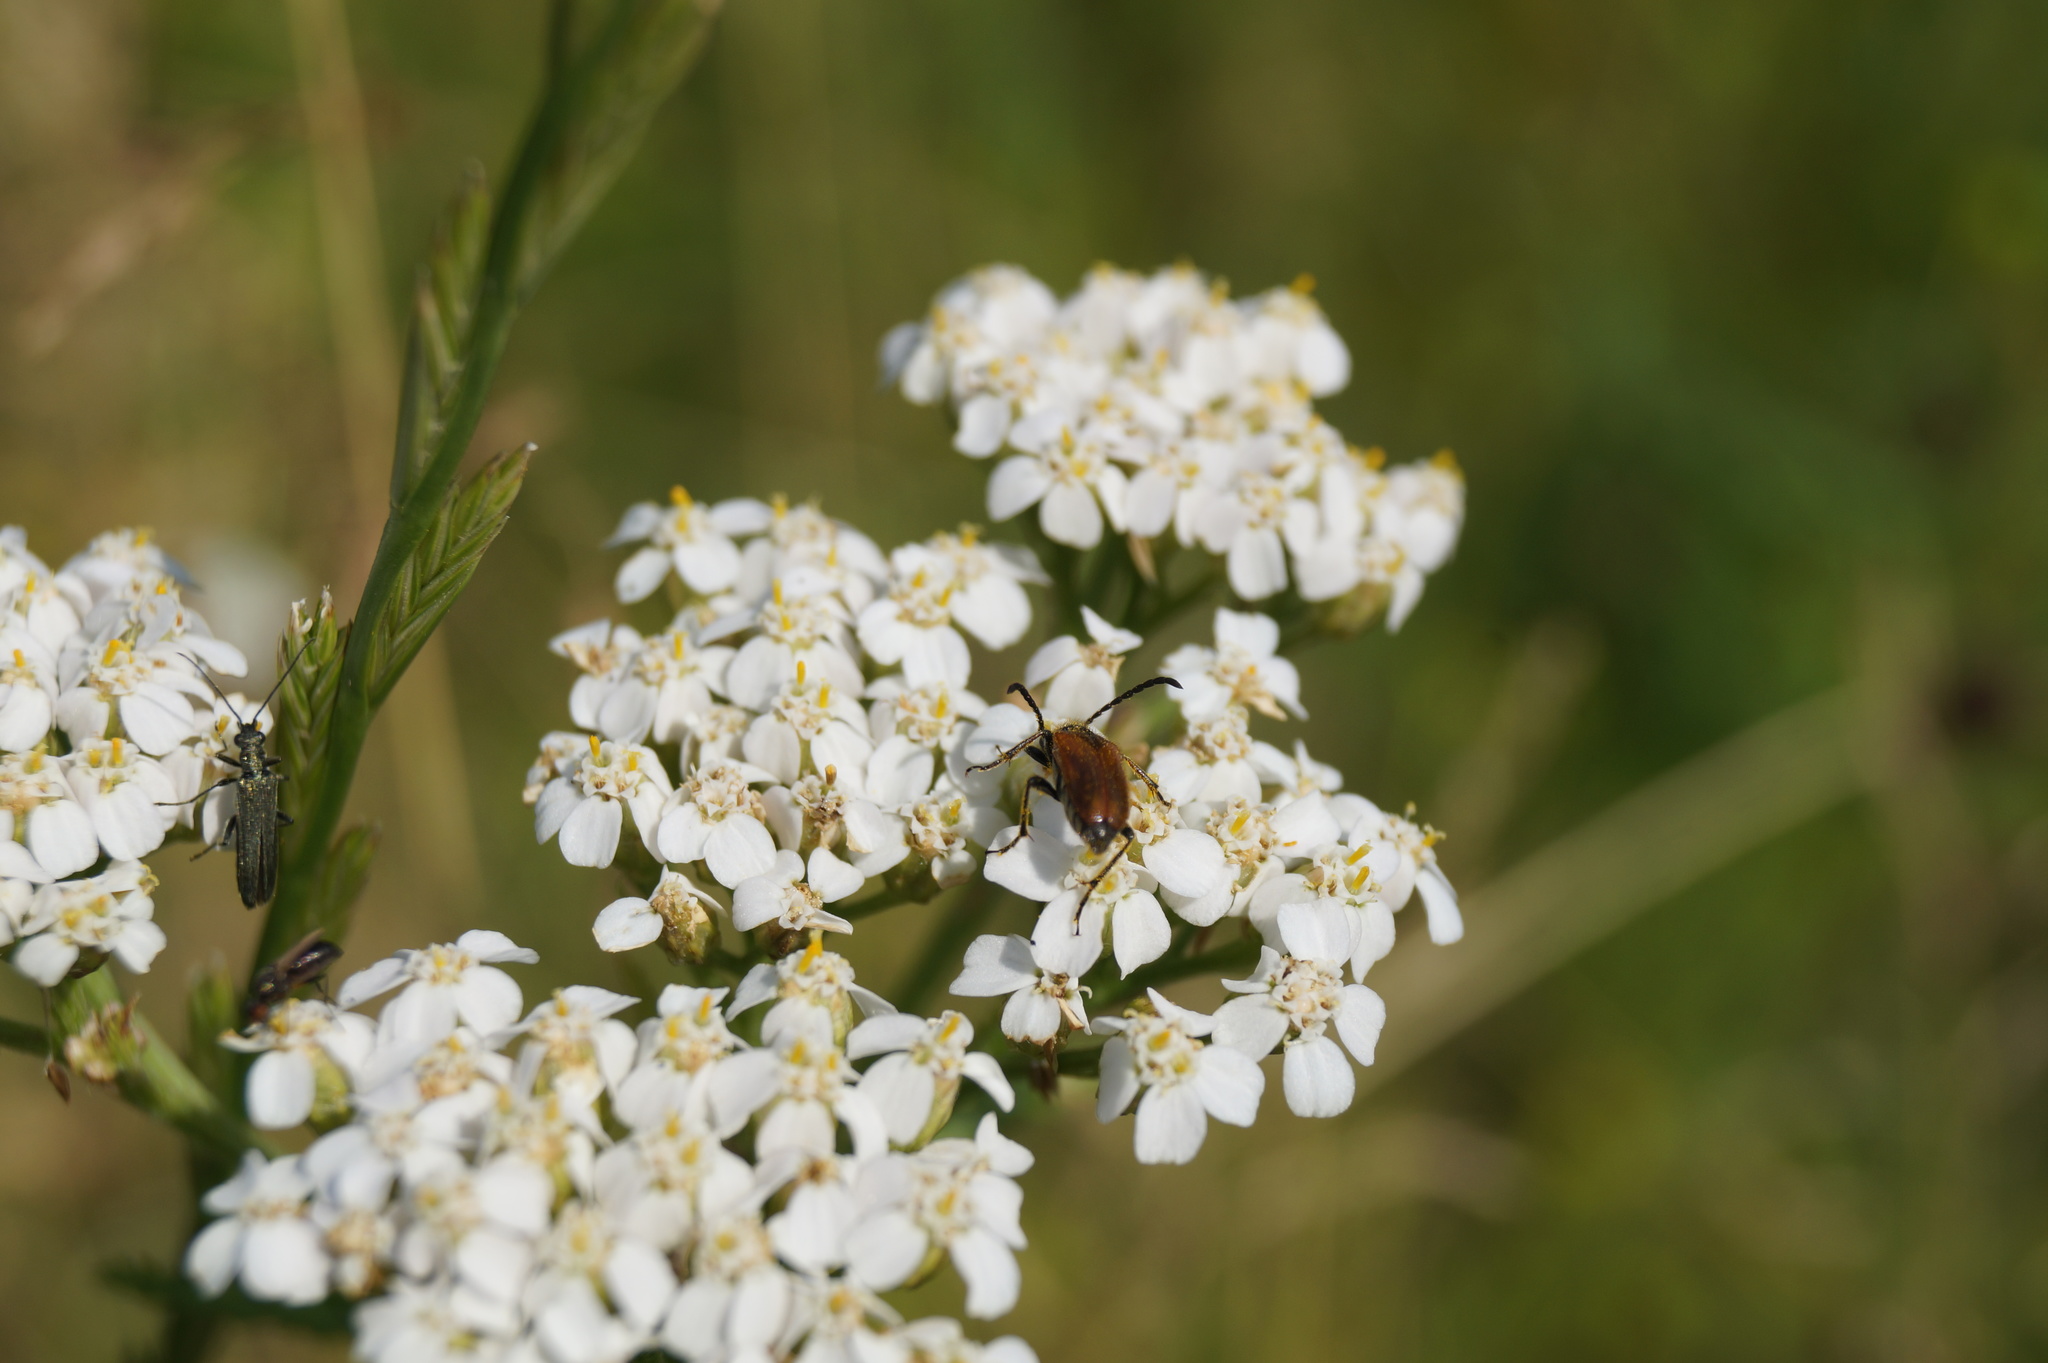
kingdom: Animalia
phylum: Arthropoda
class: Insecta
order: Coleoptera
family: Cerambycidae
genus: Pseudovadonia
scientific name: Pseudovadonia livida
